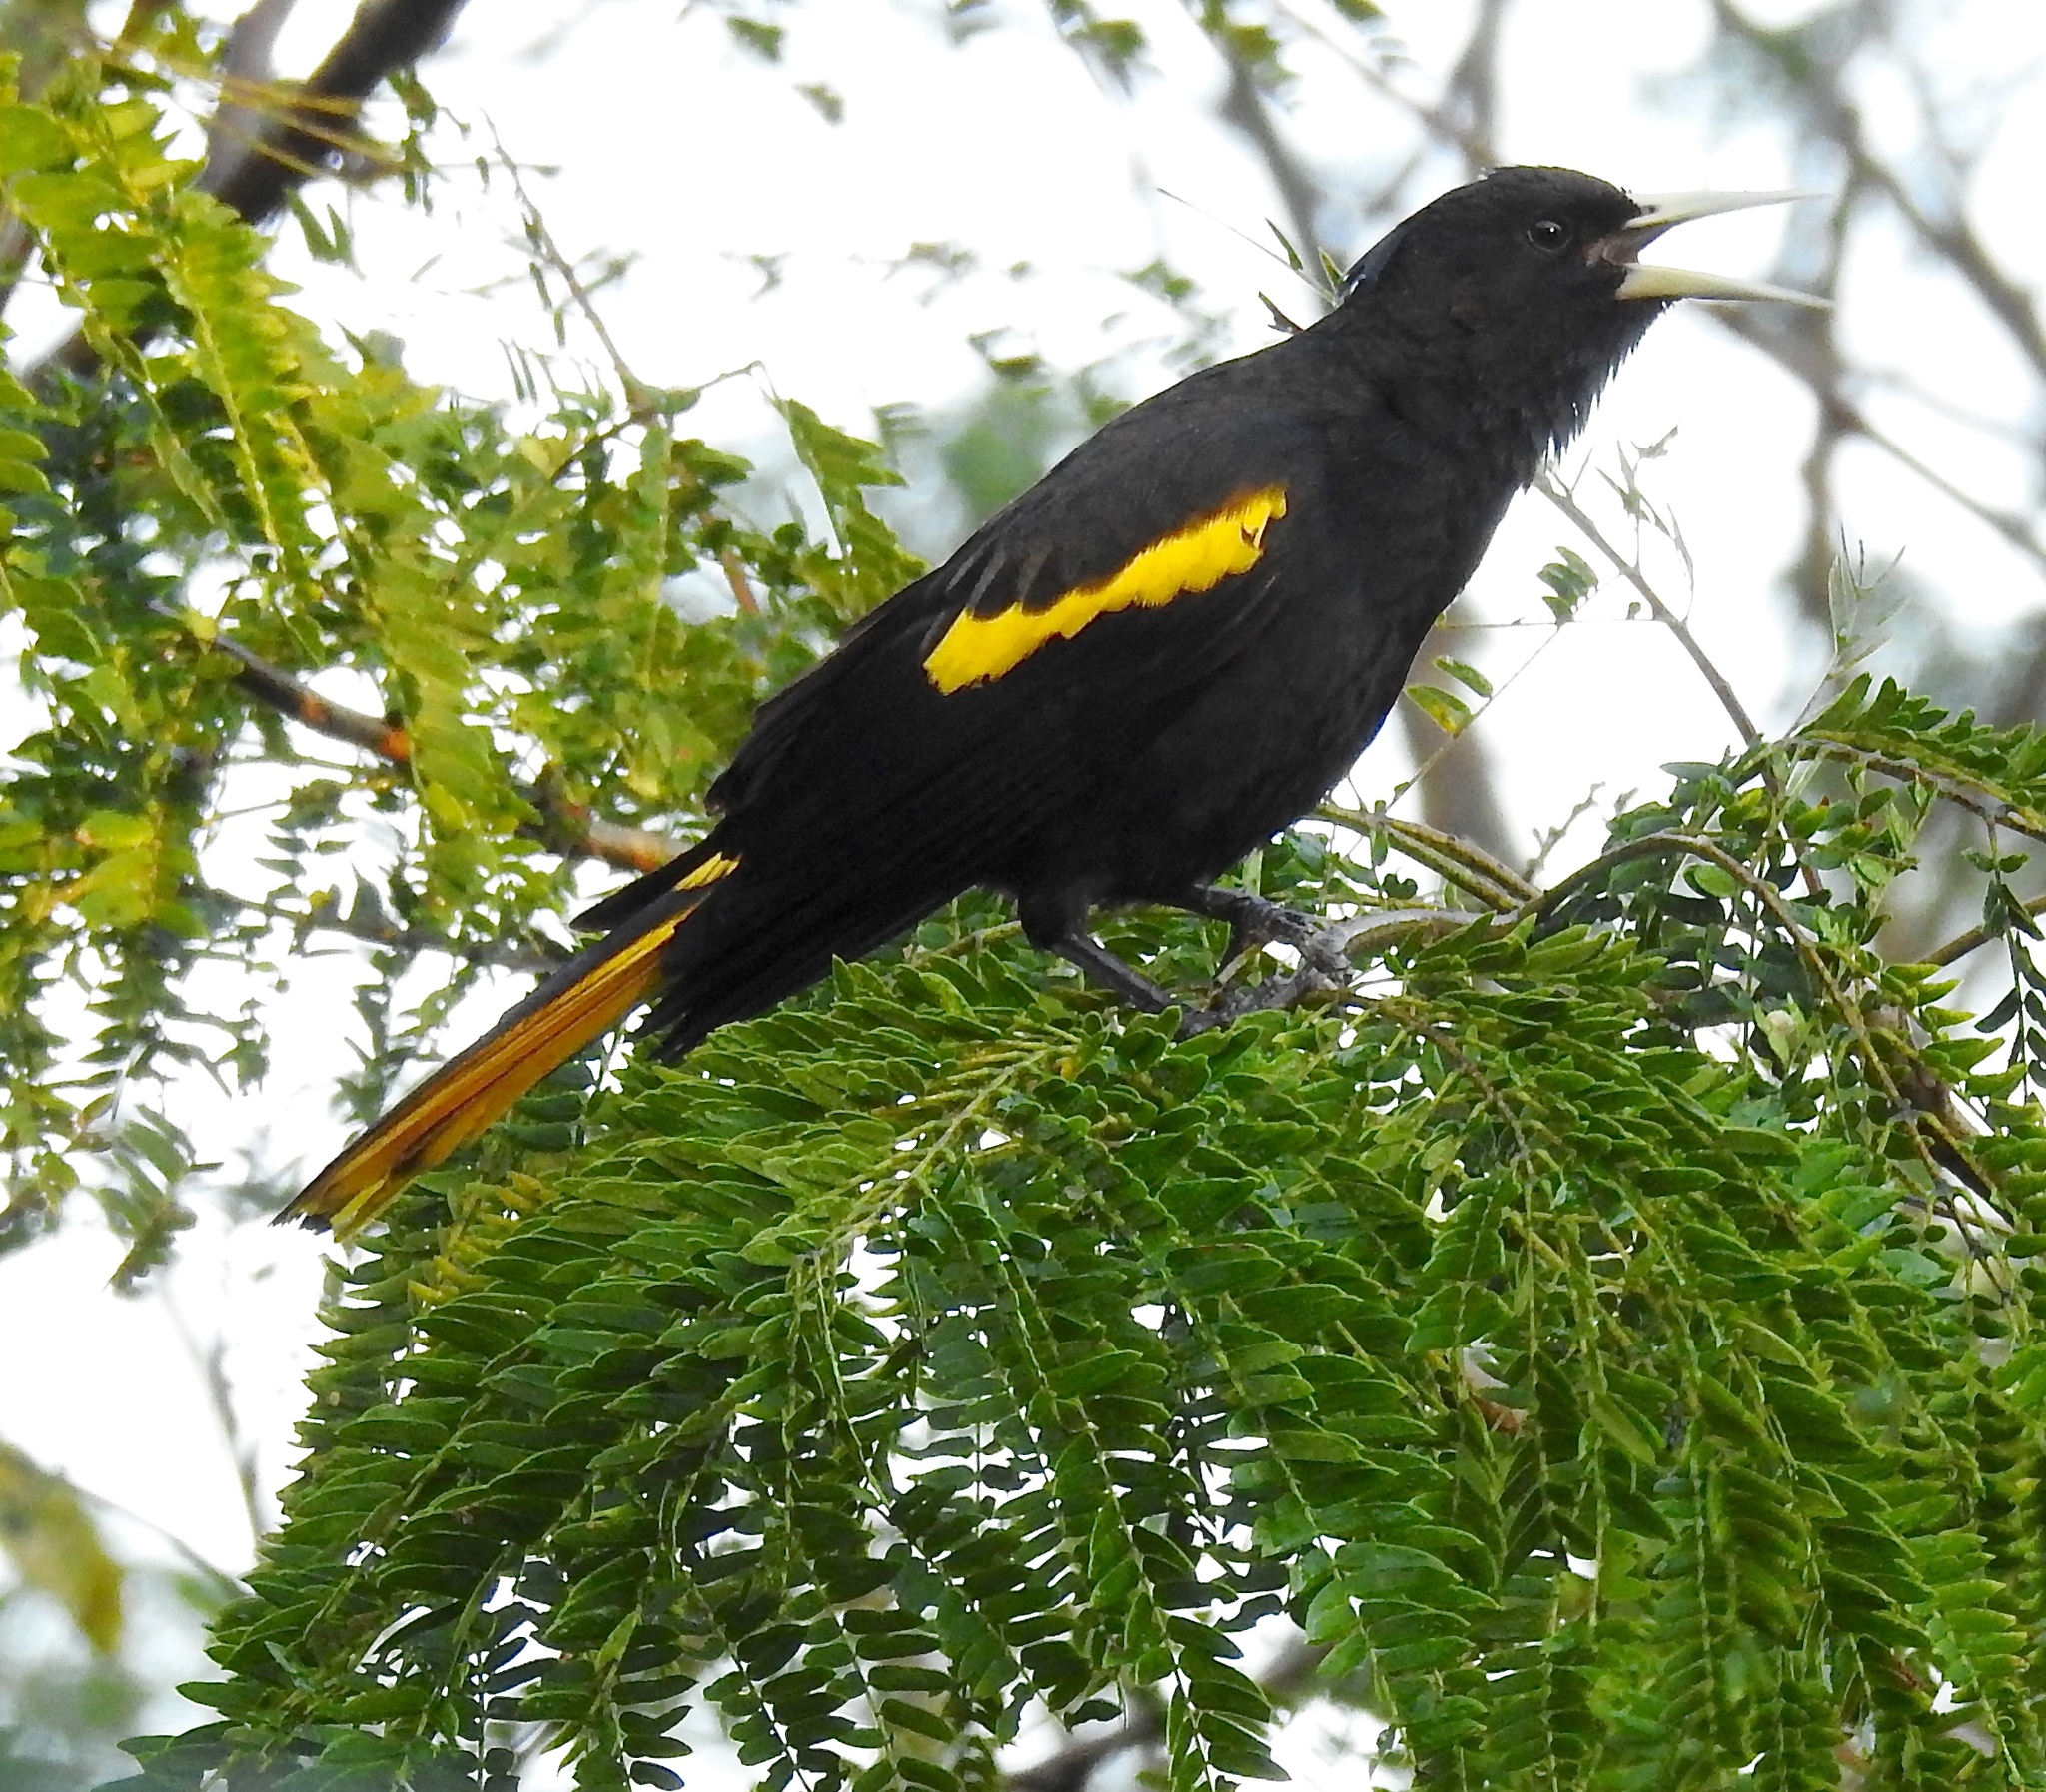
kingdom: Animalia
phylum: Chordata
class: Aves
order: Passeriformes
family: Icteridae
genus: Cacicus
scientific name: Cacicus melanicterus
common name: Yellow-winged cacique
